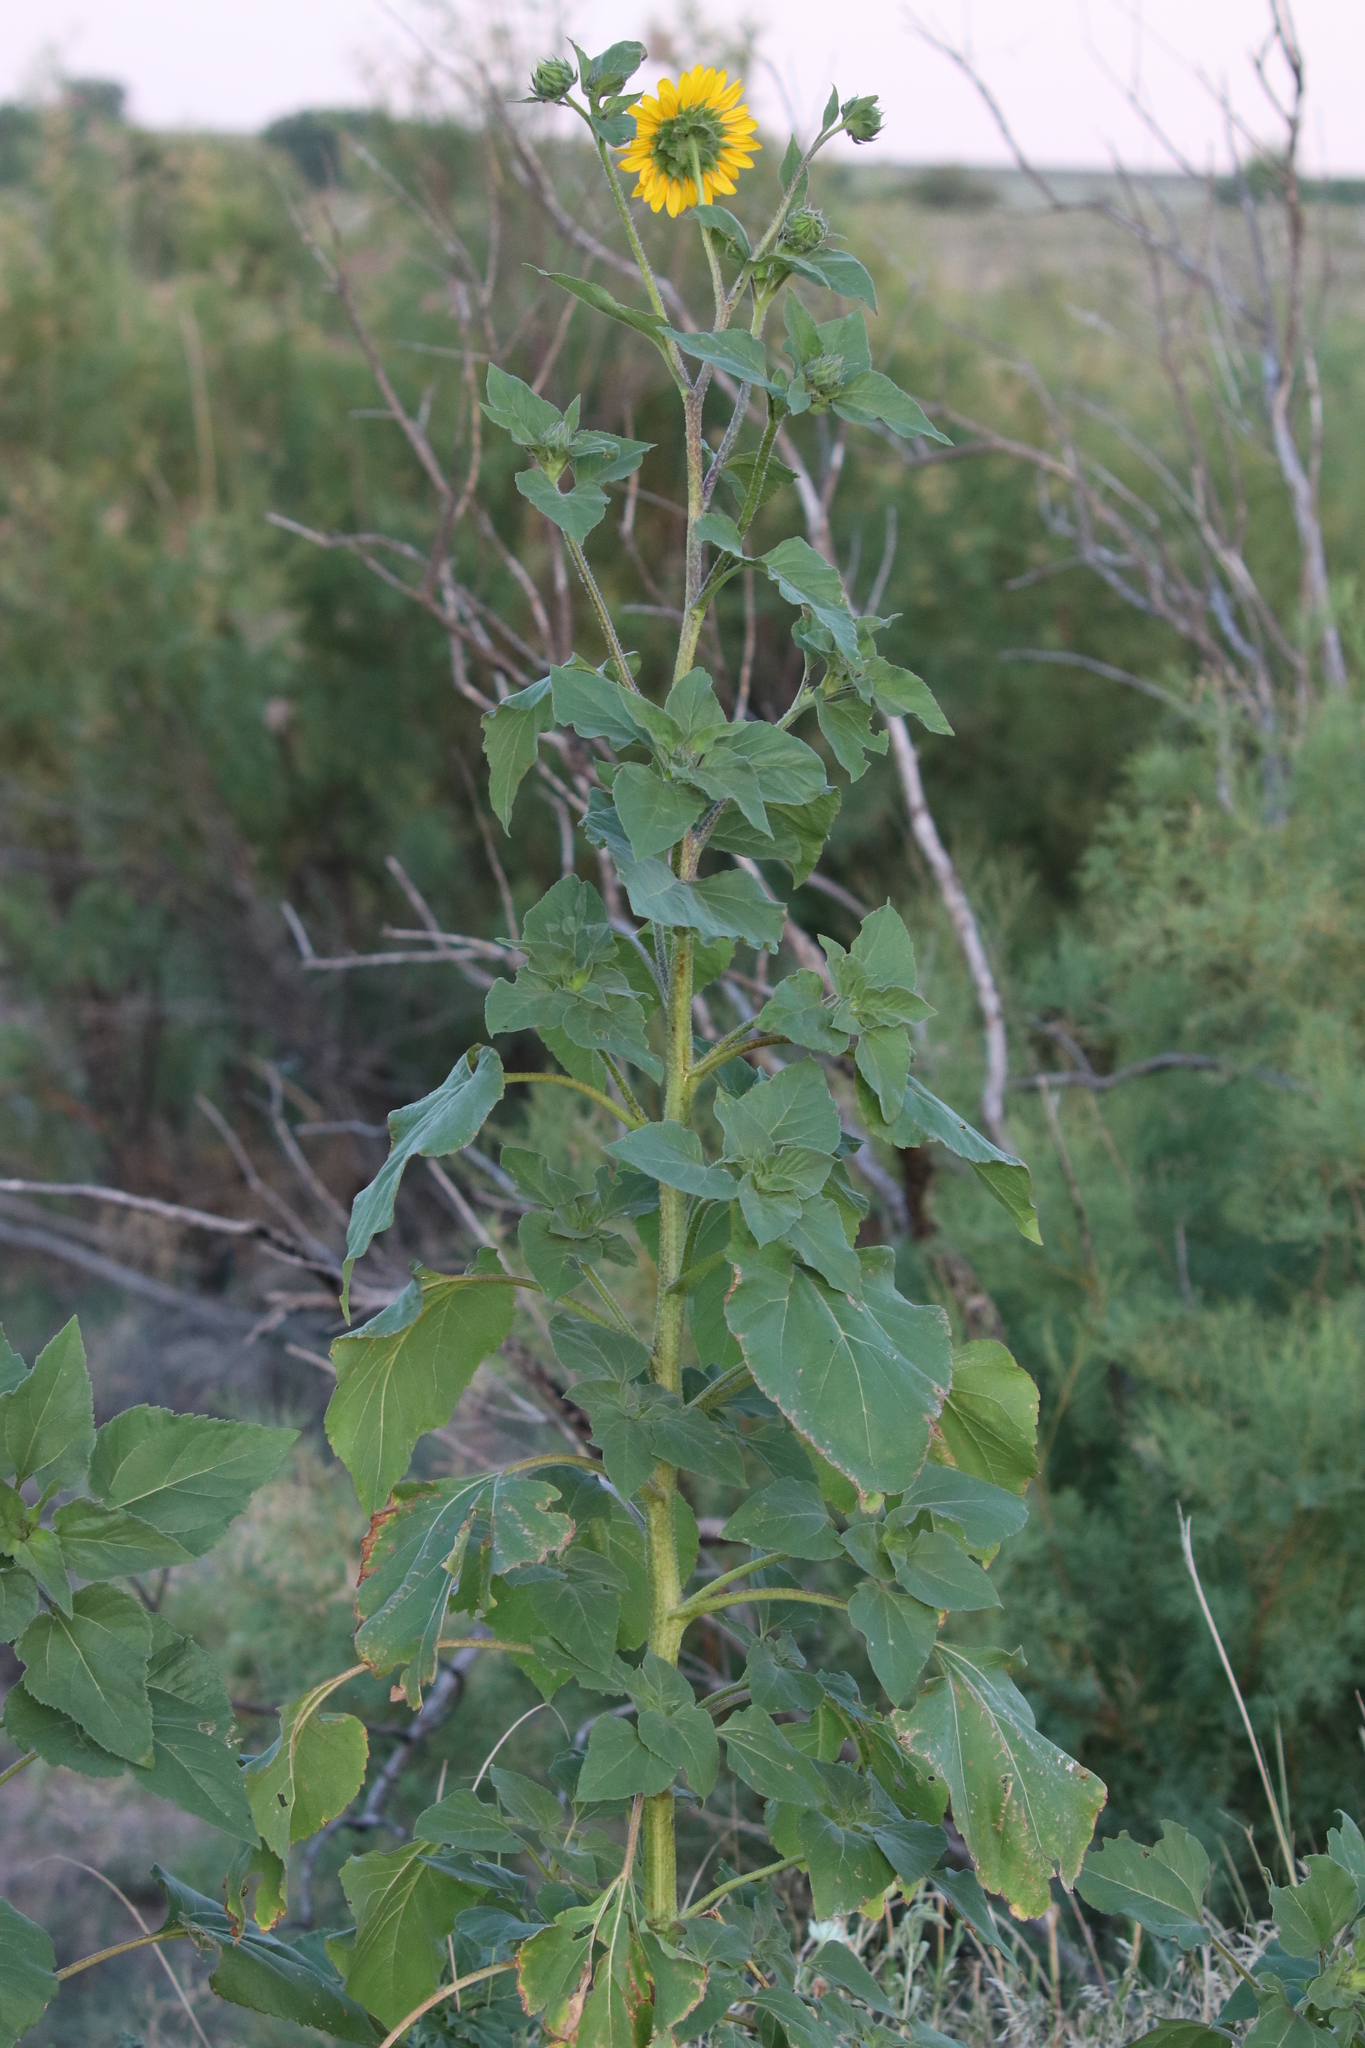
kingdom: Plantae
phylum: Tracheophyta
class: Magnoliopsida
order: Asterales
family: Asteraceae
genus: Helianthus
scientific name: Helianthus petiolaris
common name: Lesser sunflower
